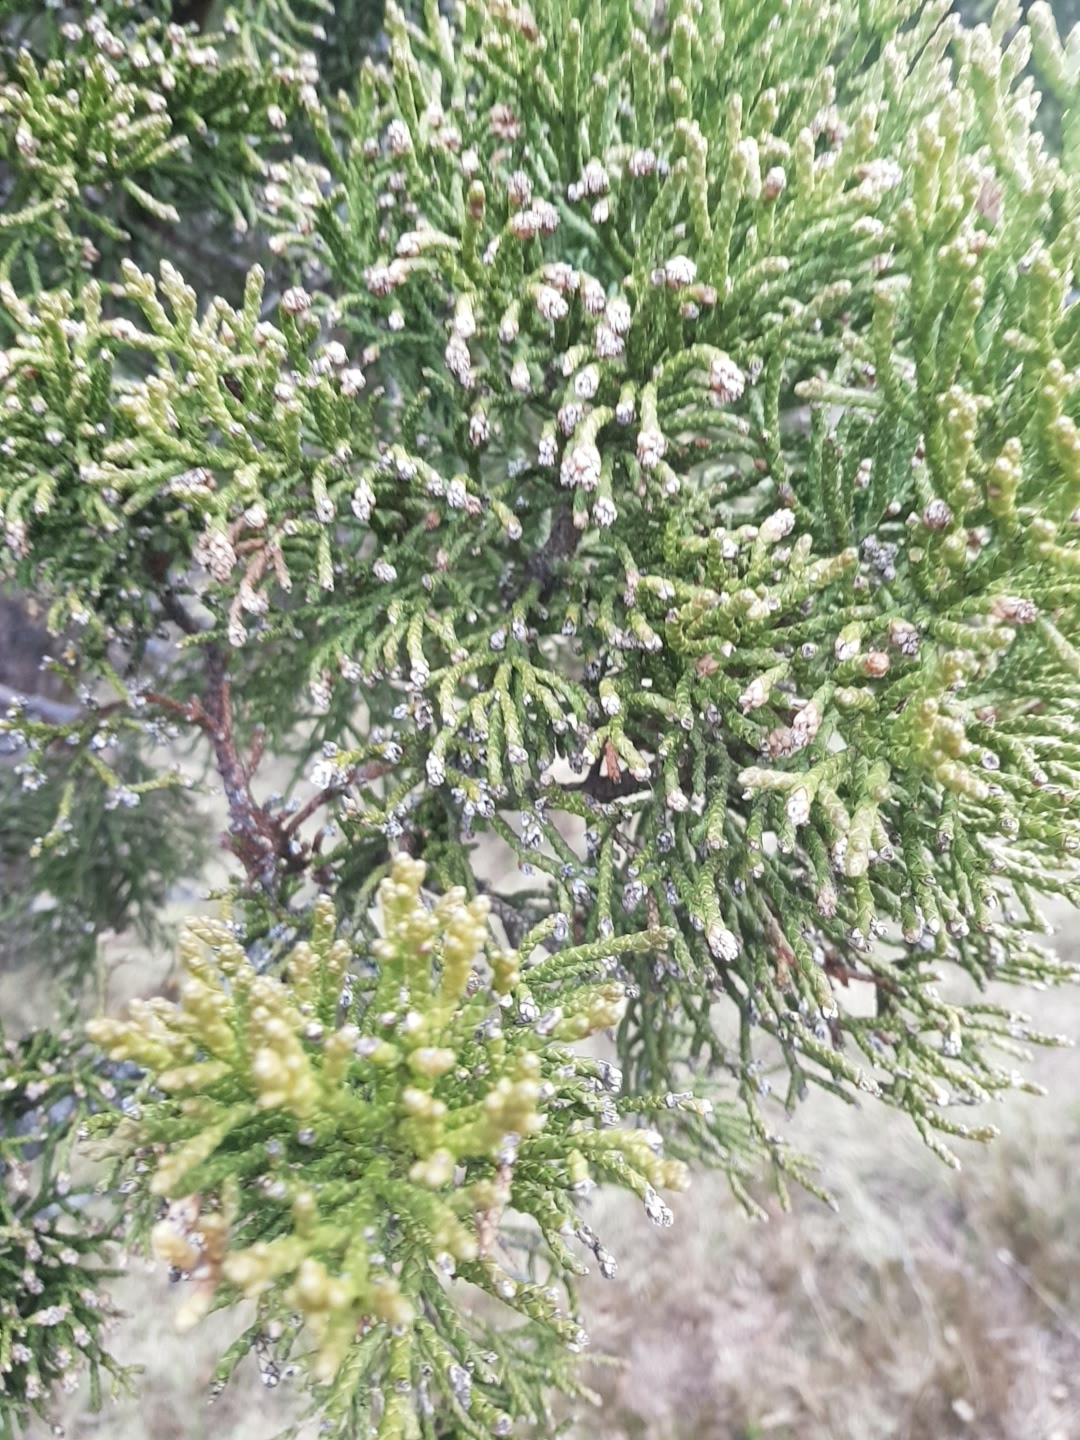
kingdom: Plantae
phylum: Tracheophyta
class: Pinopsida
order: Pinales
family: Cupressaceae
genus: Athrotaxis
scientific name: Athrotaxis cupressoides
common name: Tasmanian pencil pine
